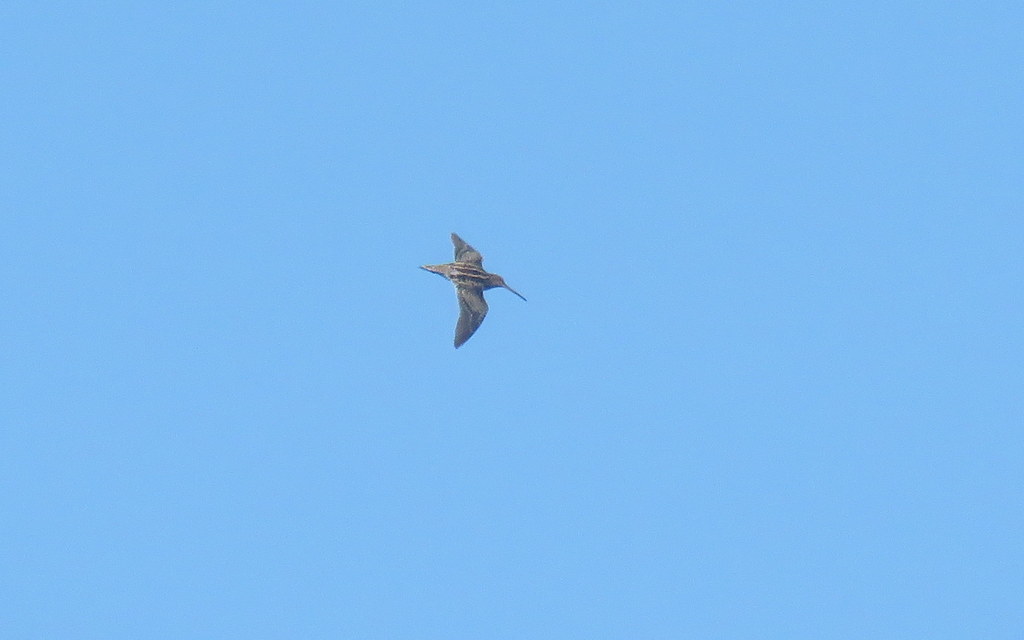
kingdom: Animalia
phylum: Chordata
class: Aves
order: Charadriiformes
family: Scolopacidae
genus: Gallinago
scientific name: Gallinago paraguaiae
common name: South american snipe
